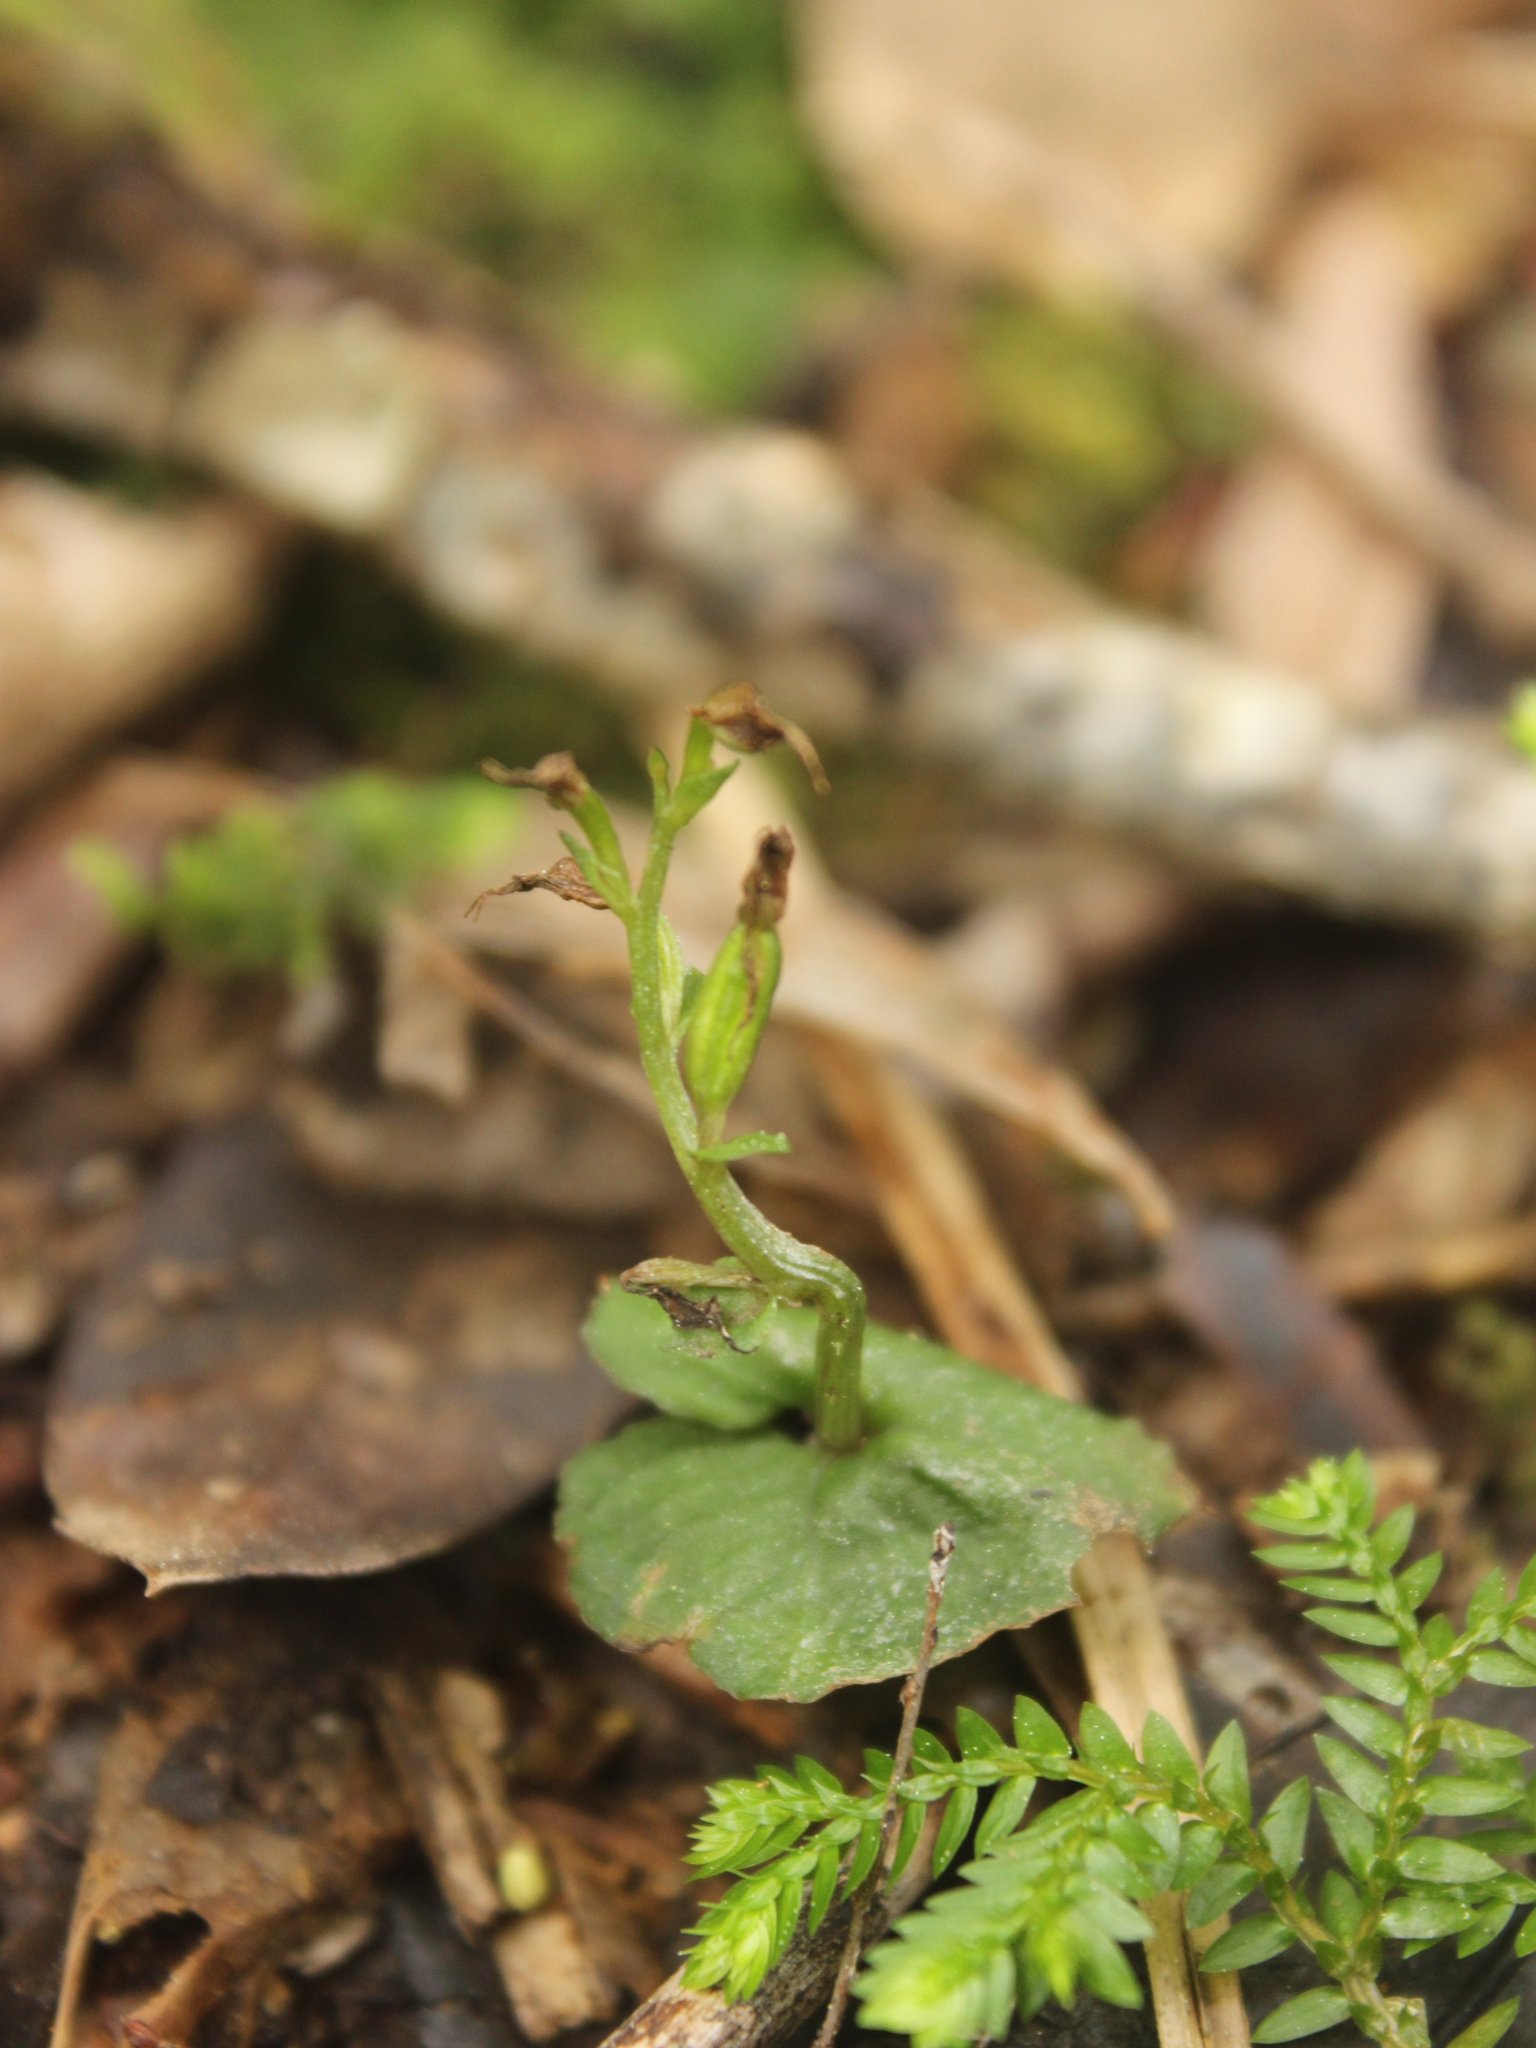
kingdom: Plantae
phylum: Tracheophyta
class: Liliopsida
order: Asparagales
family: Orchidaceae
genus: Acianthus
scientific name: Acianthus sinclairii
